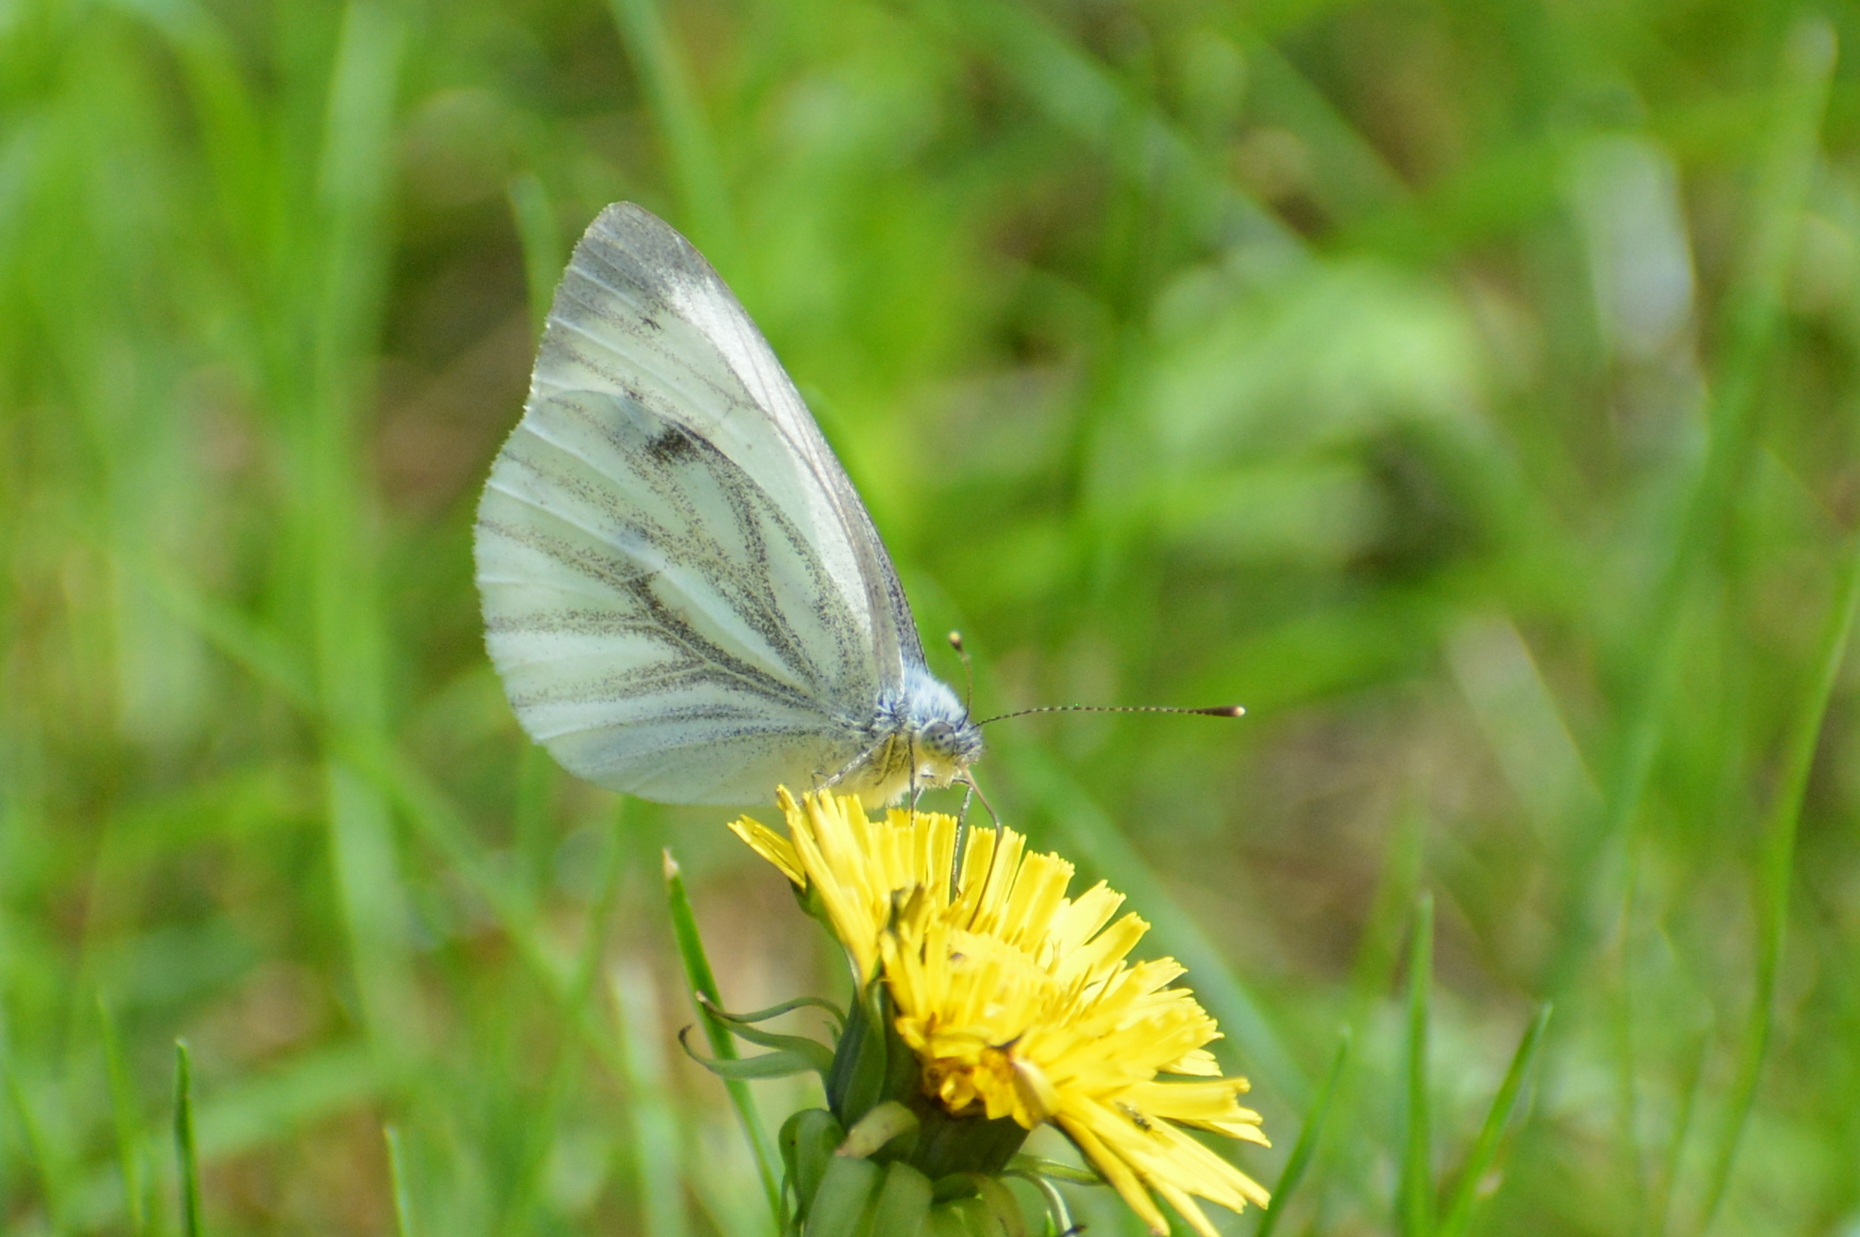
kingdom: Animalia
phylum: Arthropoda
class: Insecta
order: Lepidoptera
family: Pieridae
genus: Pieris
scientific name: Pieris napi
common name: Green-veined white
